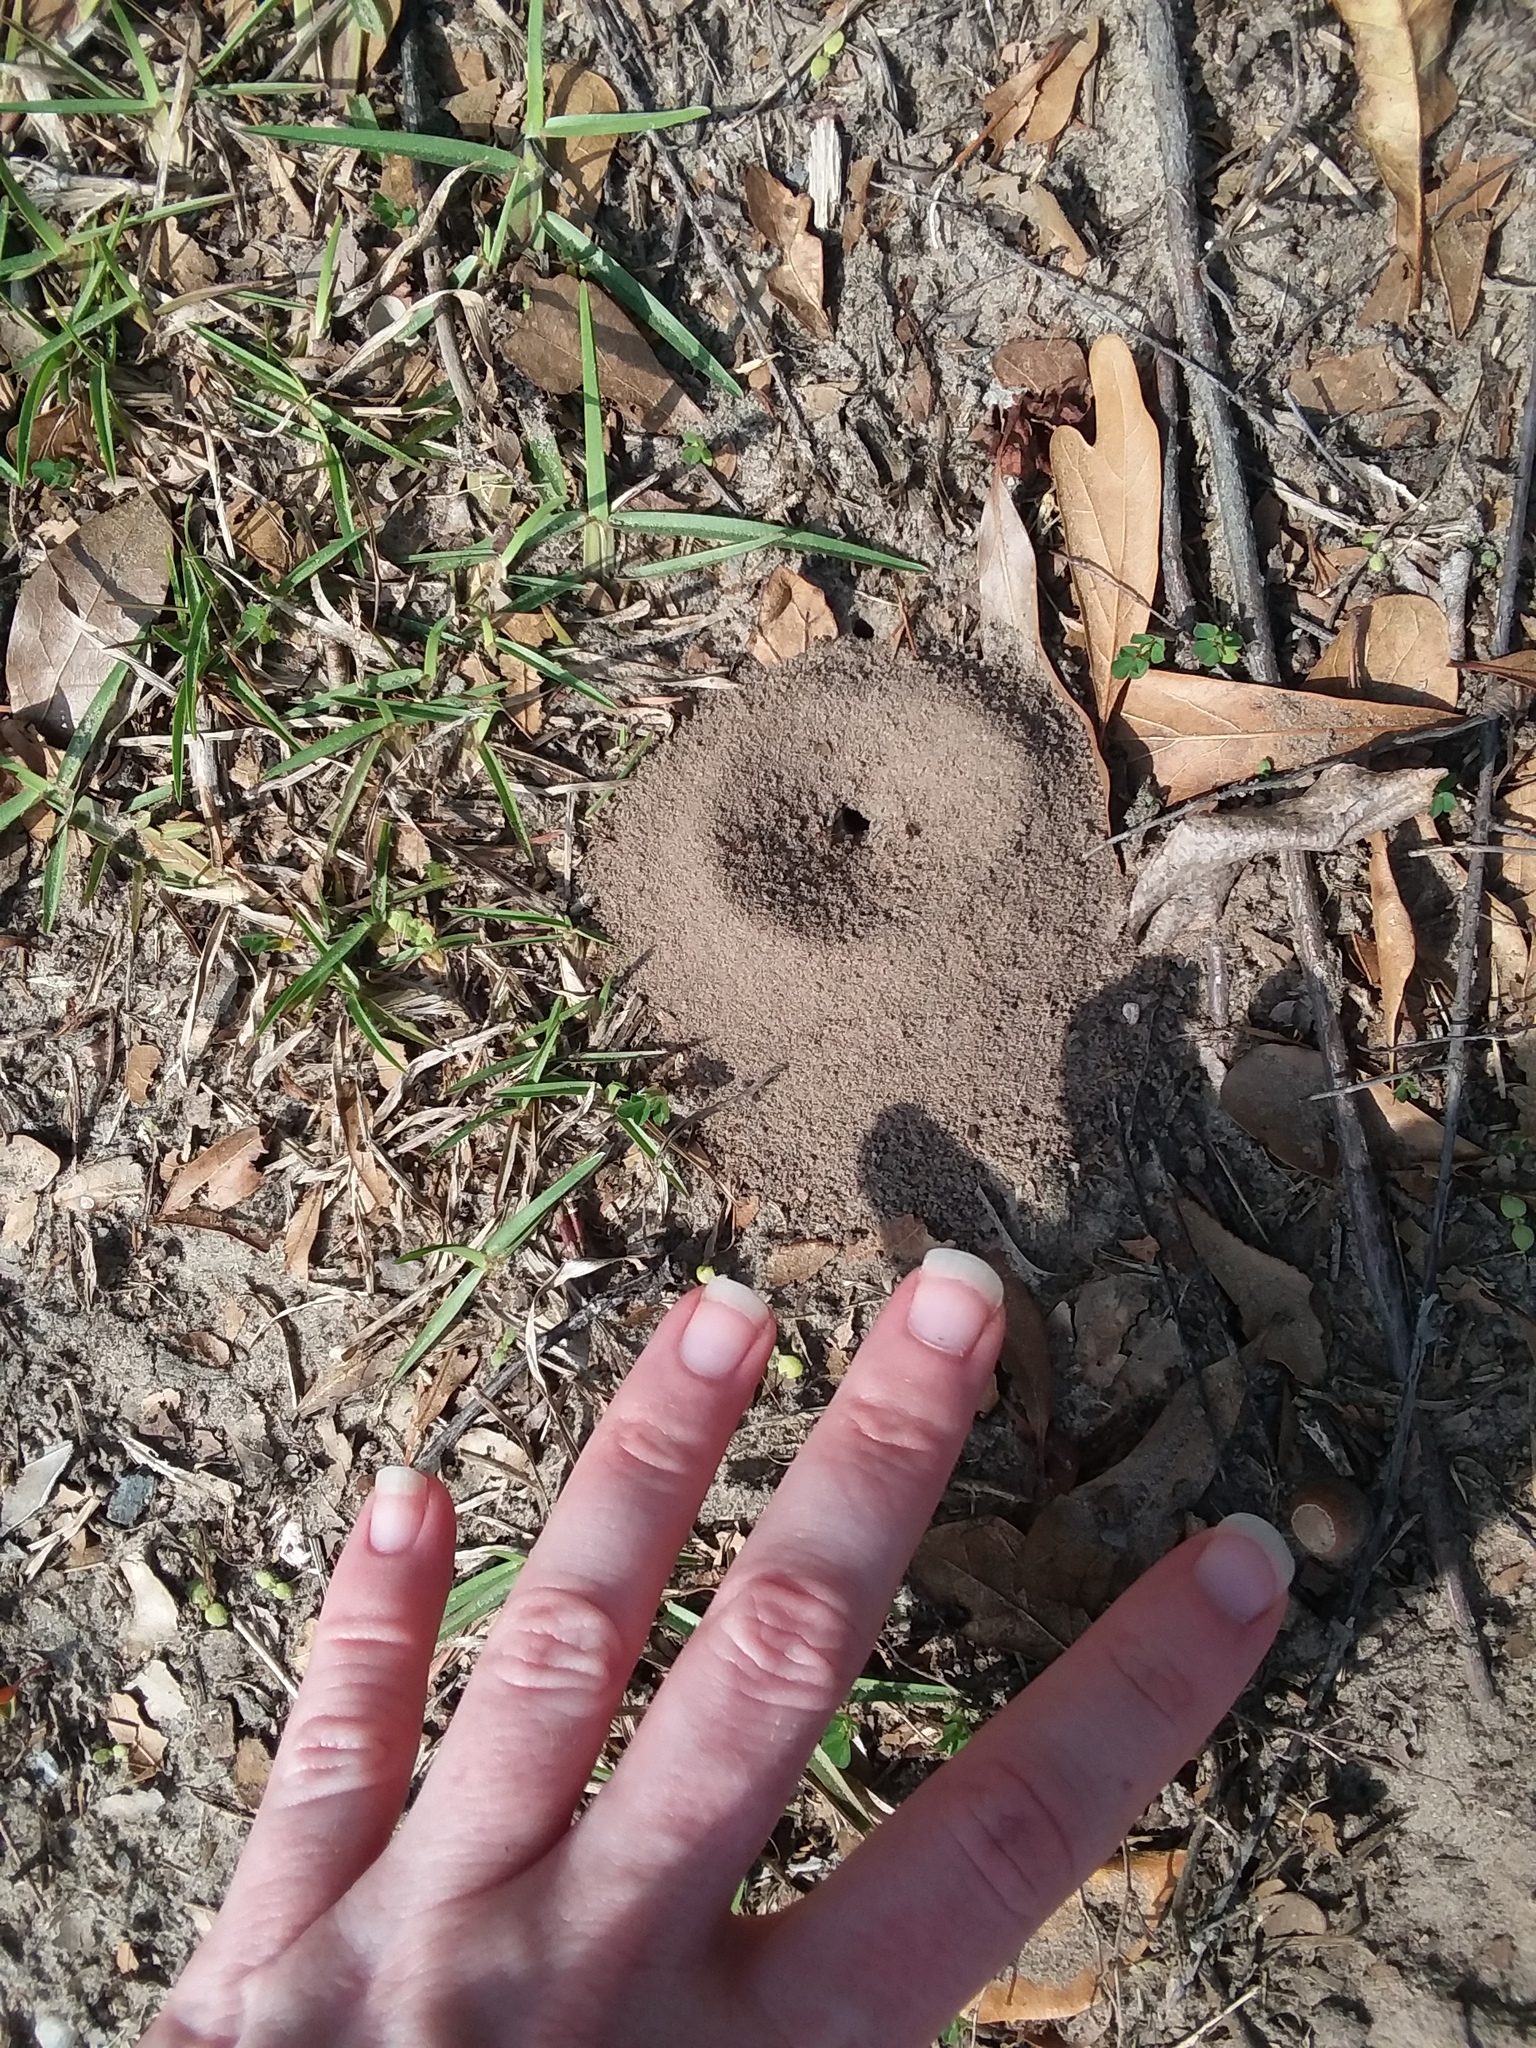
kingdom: Animalia
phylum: Arthropoda
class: Insecta
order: Hymenoptera
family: Formicidae
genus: Dorymyrmex
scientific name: Dorymyrmex bureni
